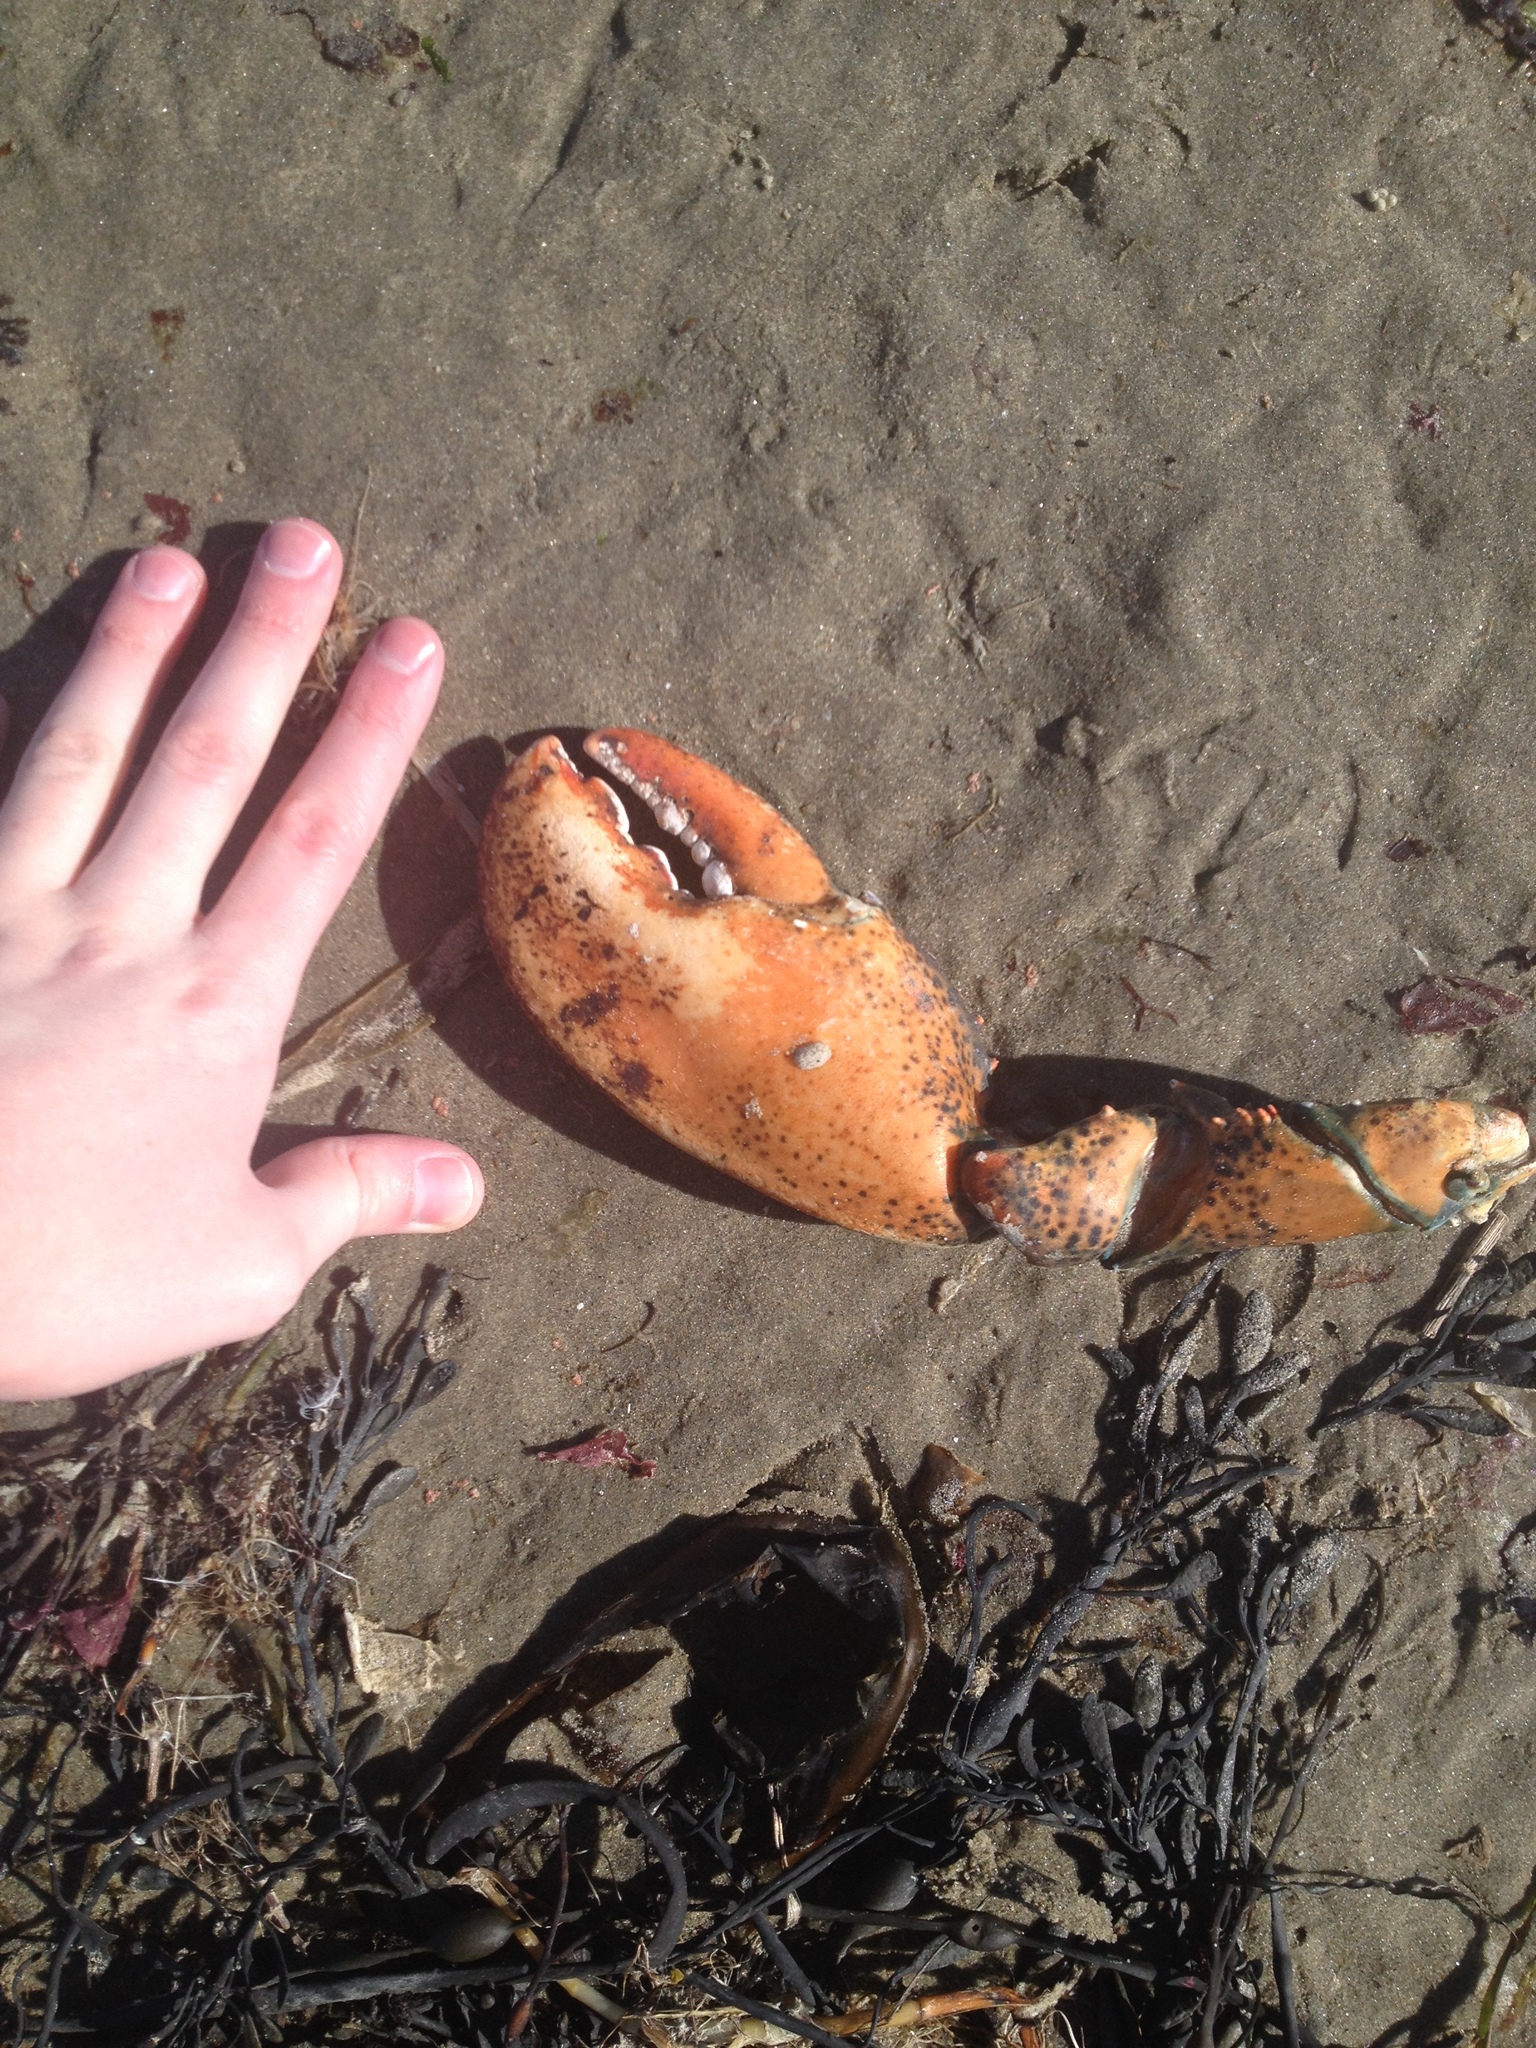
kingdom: Animalia
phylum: Arthropoda
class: Malacostraca
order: Decapoda
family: Nephropidae
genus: Homarus
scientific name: Homarus americanus
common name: American lobster
